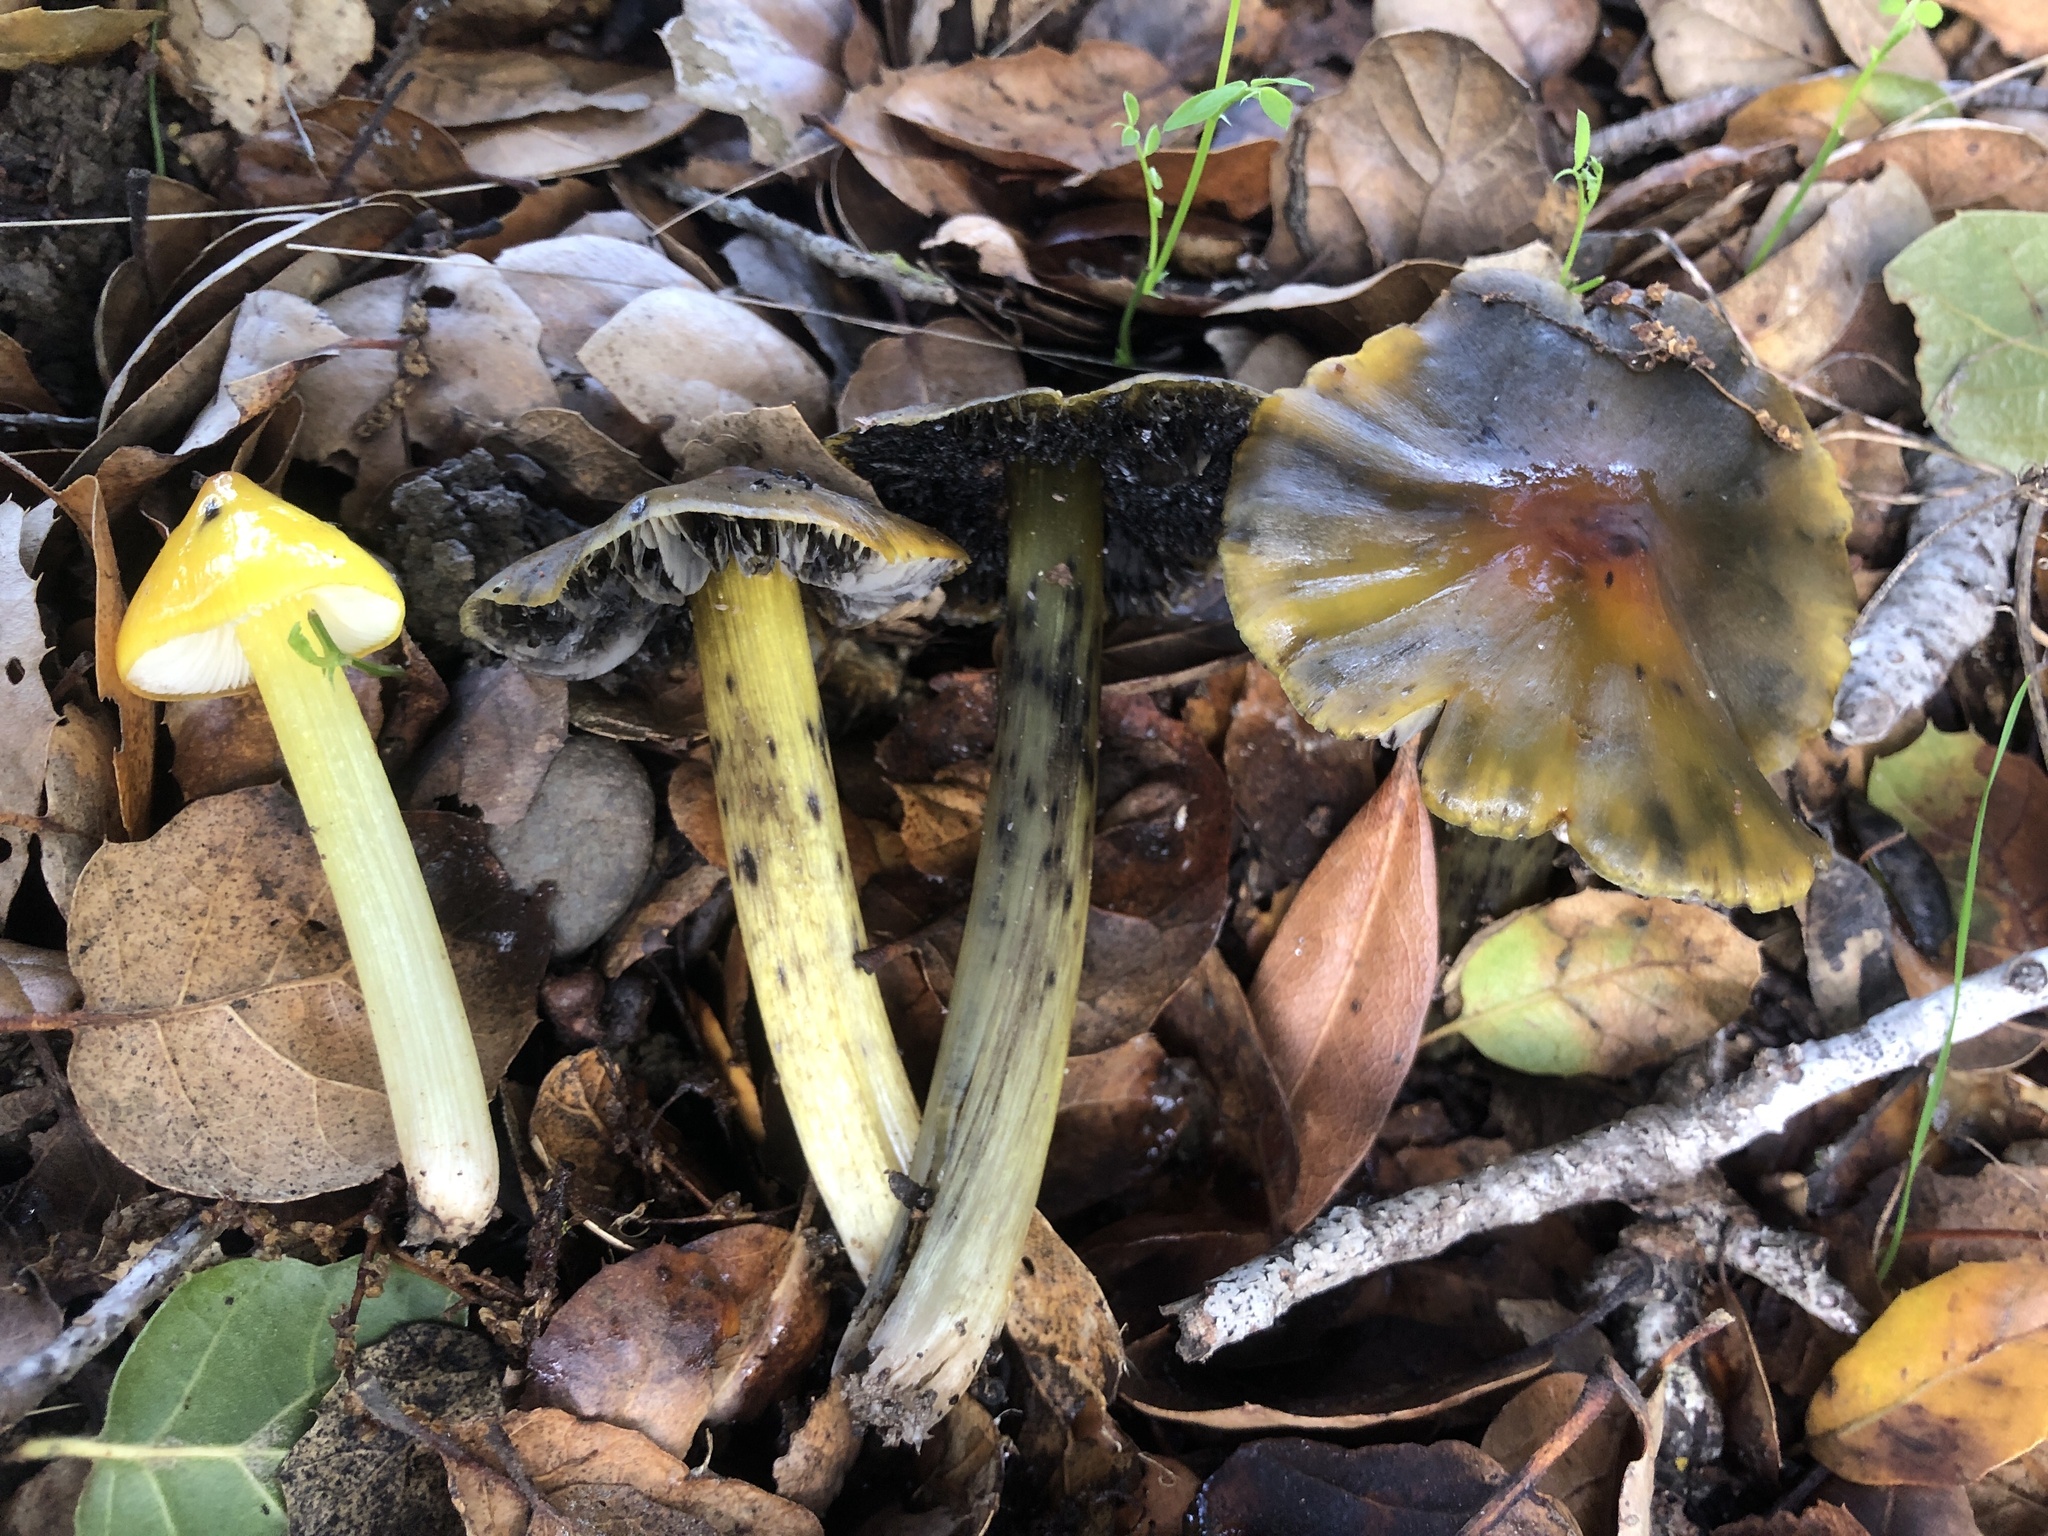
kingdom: Fungi
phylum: Basidiomycota
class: Agaricomycetes
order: Agaricales
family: Hygrophoraceae
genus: Hygrocybe
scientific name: Hygrocybe singeri
